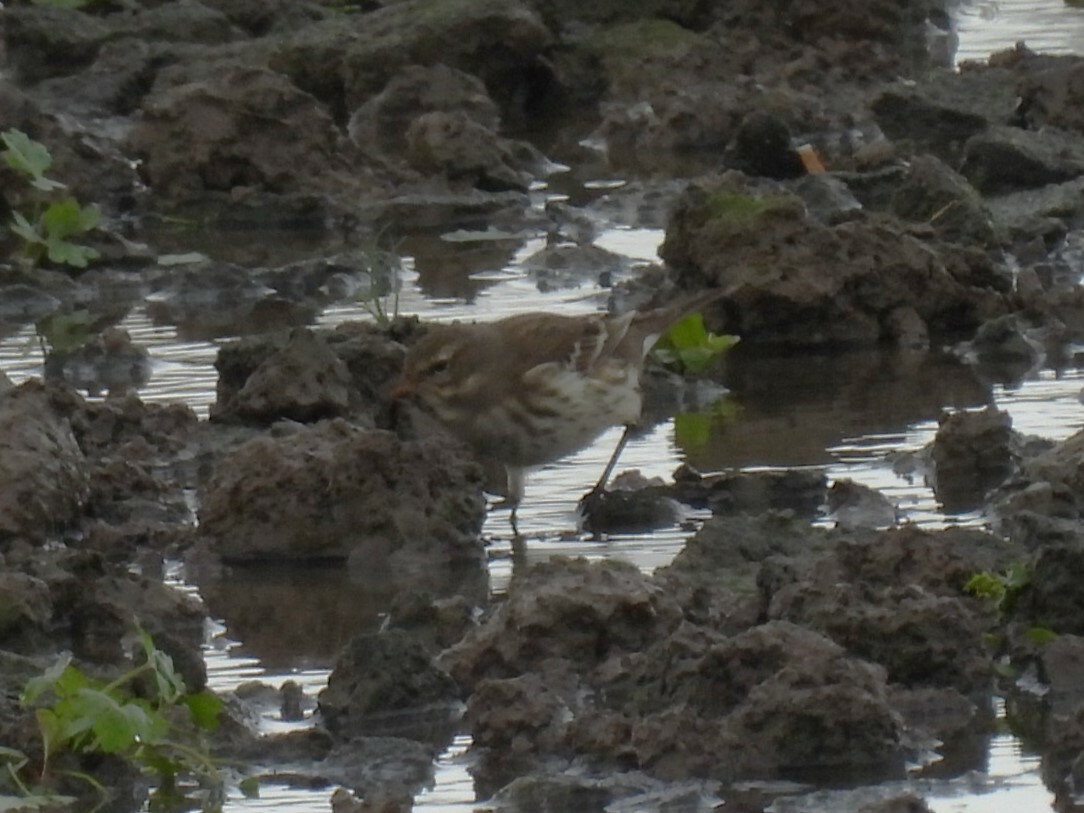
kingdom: Animalia
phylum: Chordata
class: Aves
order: Passeriformes
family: Motacillidae
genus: Anthus
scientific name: Anthus spinoletta
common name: Water pipit
